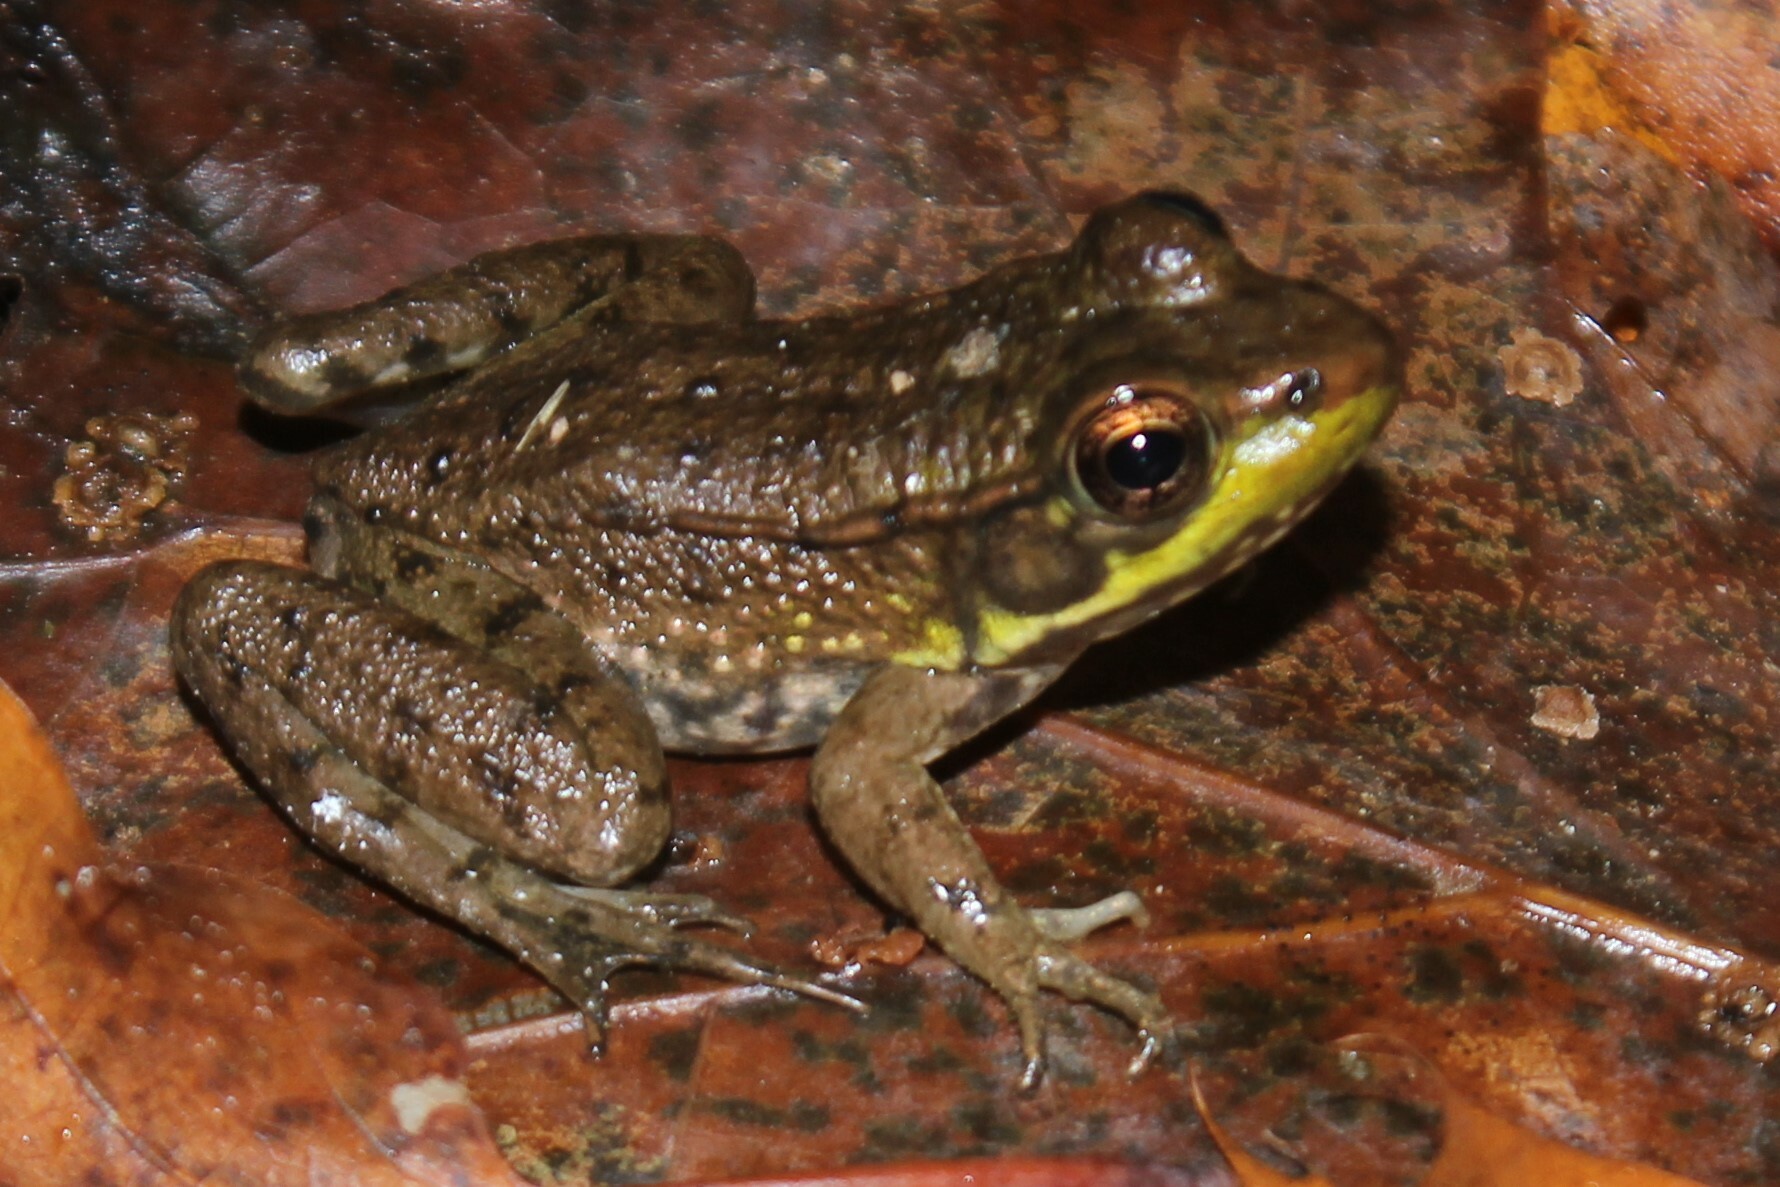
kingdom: Animalia
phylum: Chordata
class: Amphibia
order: Anura
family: Ranidae
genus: Lithobates
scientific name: Lithobates clamitans
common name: Green frog
